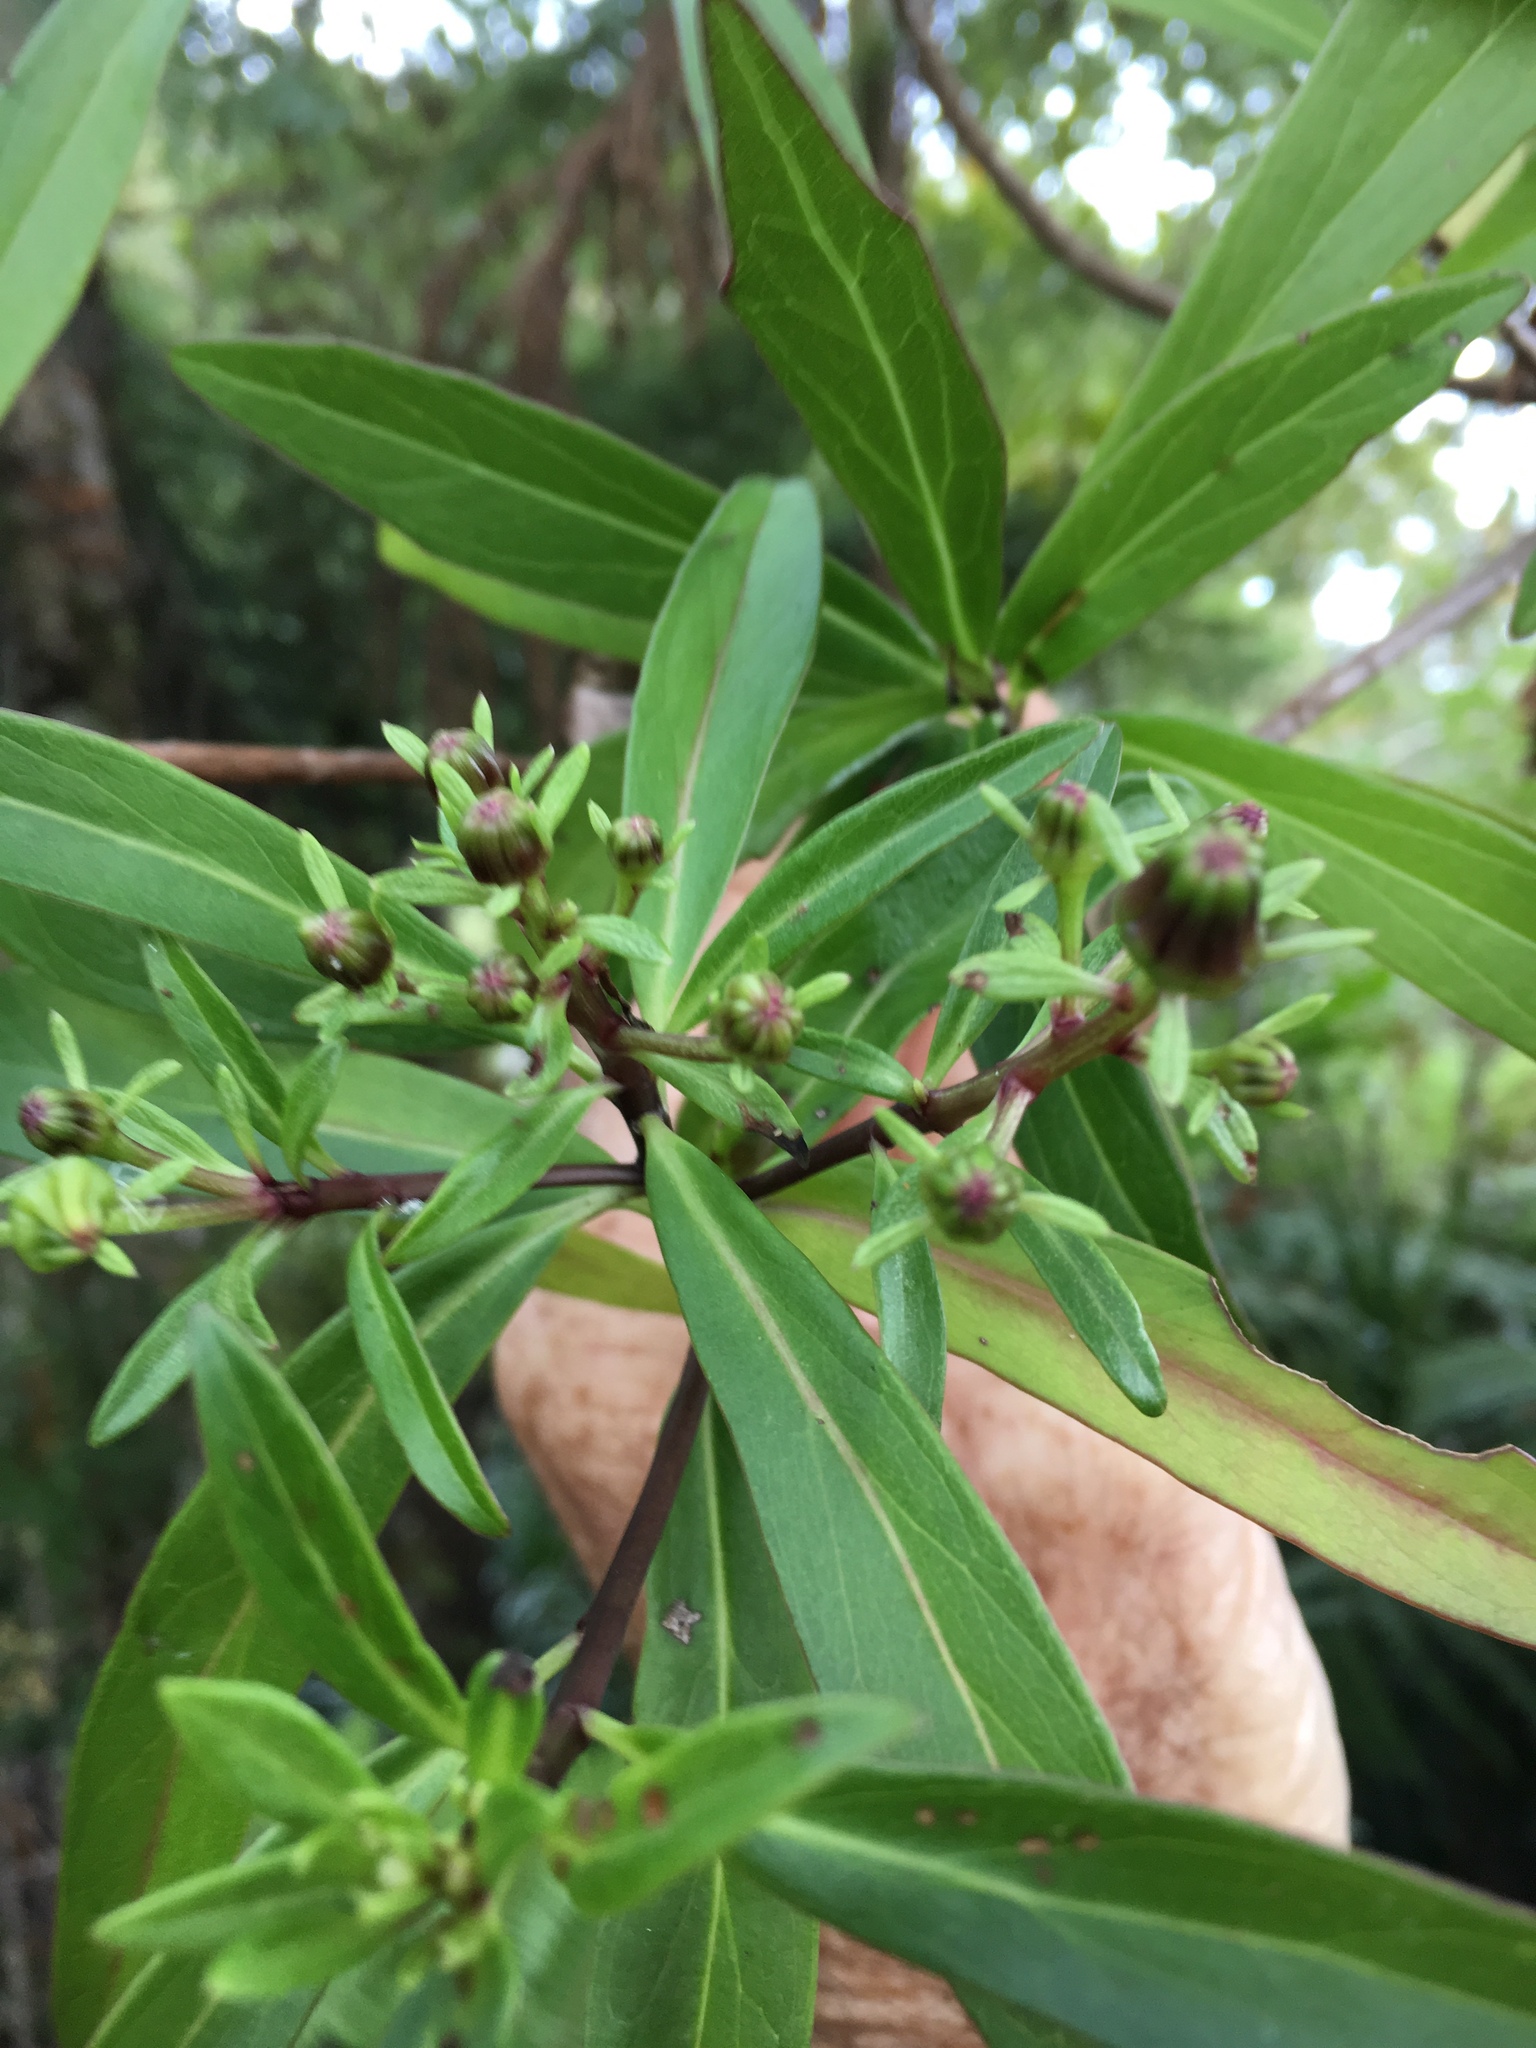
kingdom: Plantae
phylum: Tracheophyta
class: Magnoliopsida
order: Asterales
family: Asteraceae
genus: Brachyglottis
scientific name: Brachyglottis kirkii
